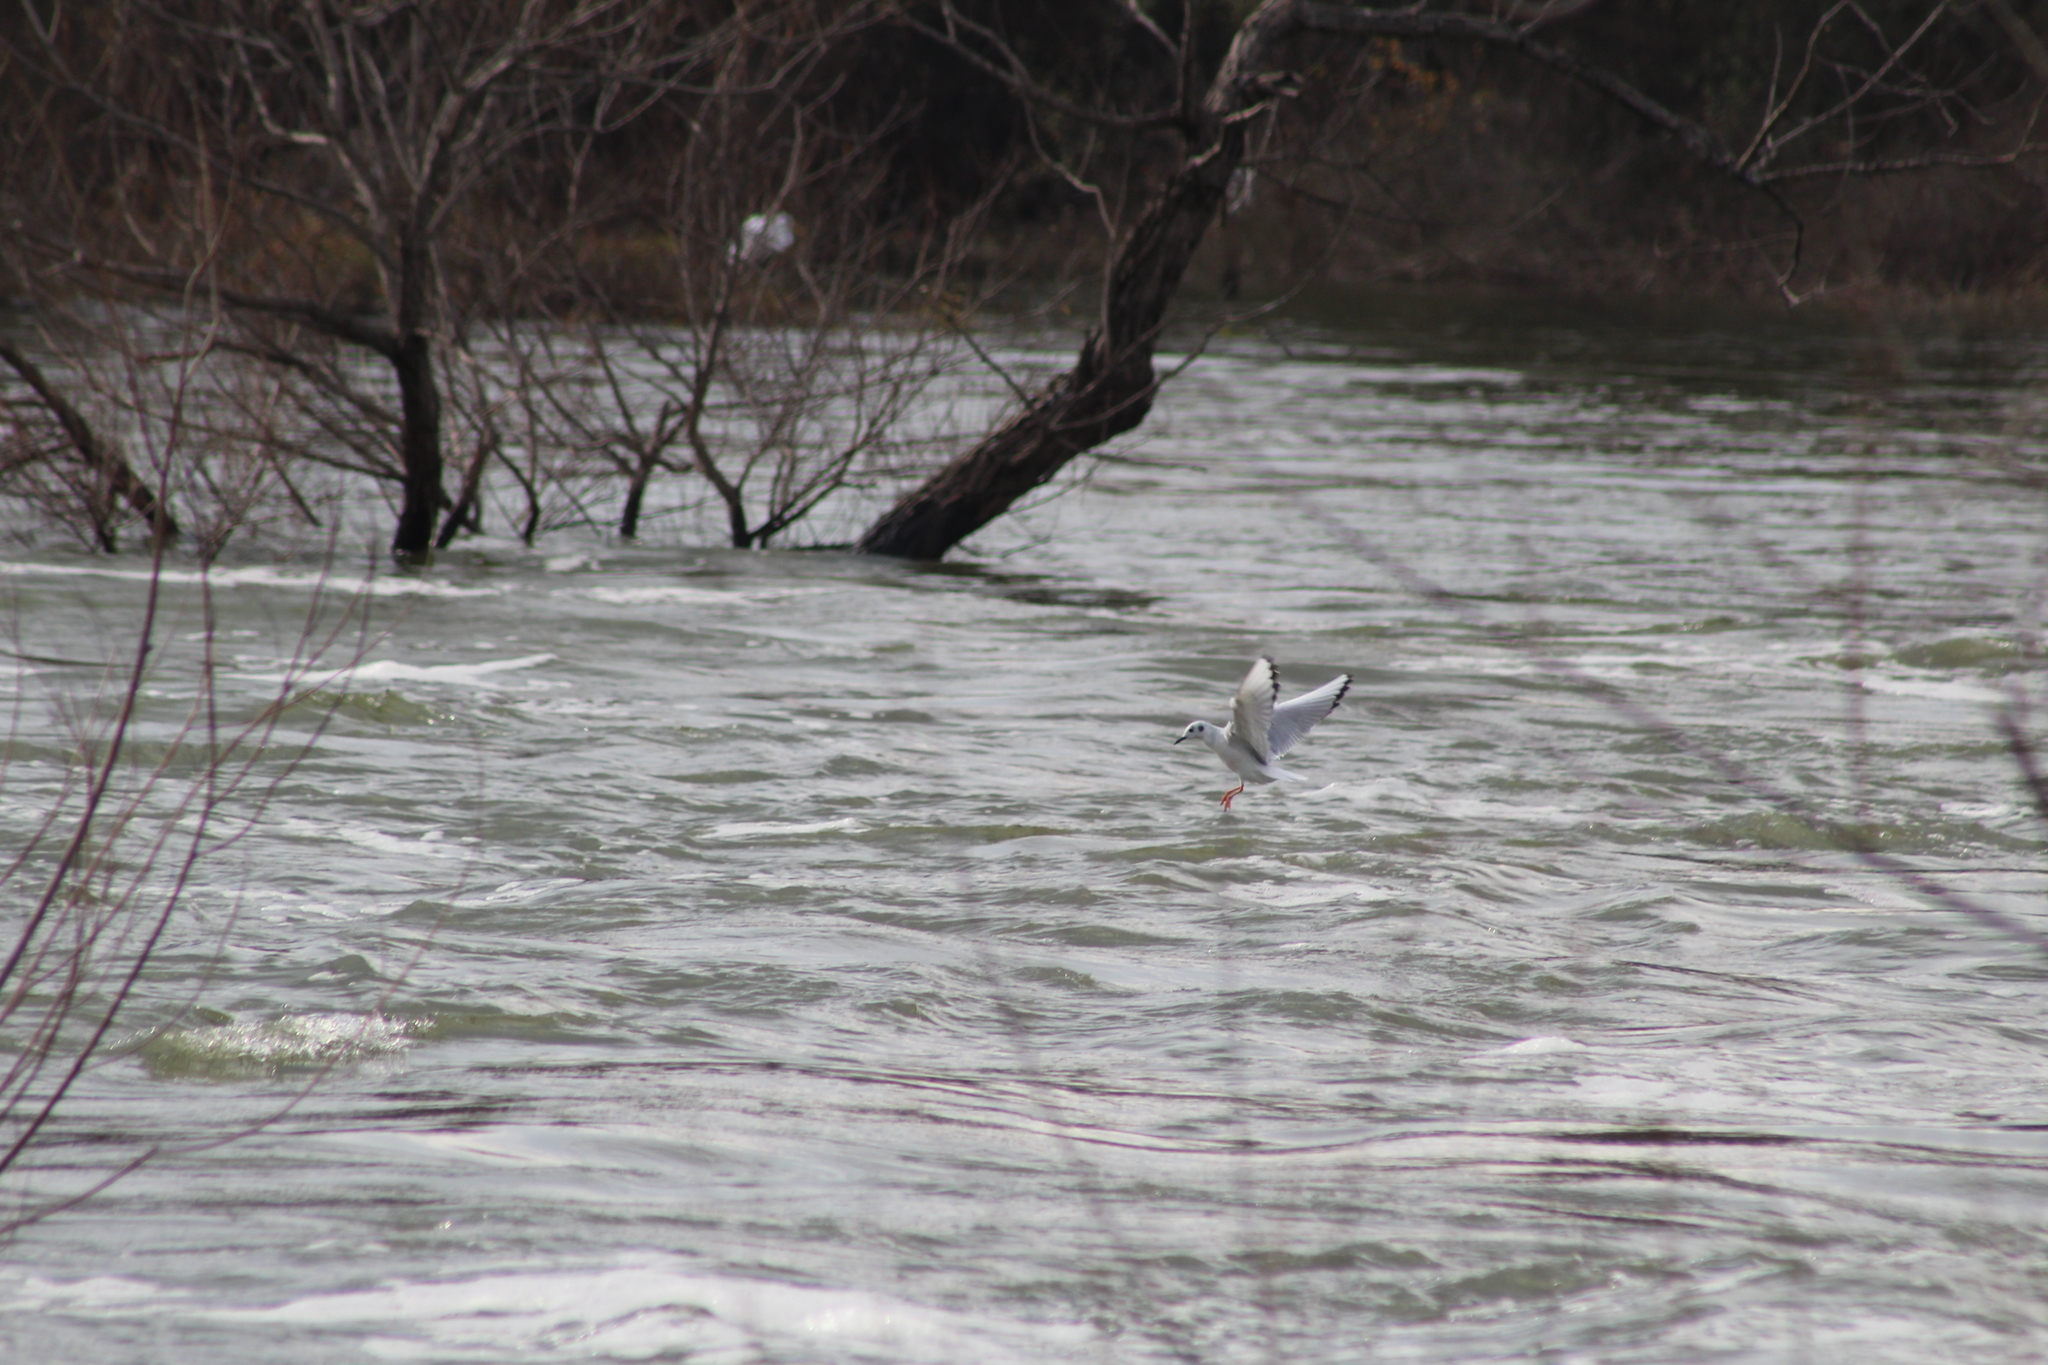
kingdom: Animalia
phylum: Chordata
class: Aves
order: Charadriiformes
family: Laridae
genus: Chroicocephalus
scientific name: Chroicocephalus philadelphia
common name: Bonaparte's gull
